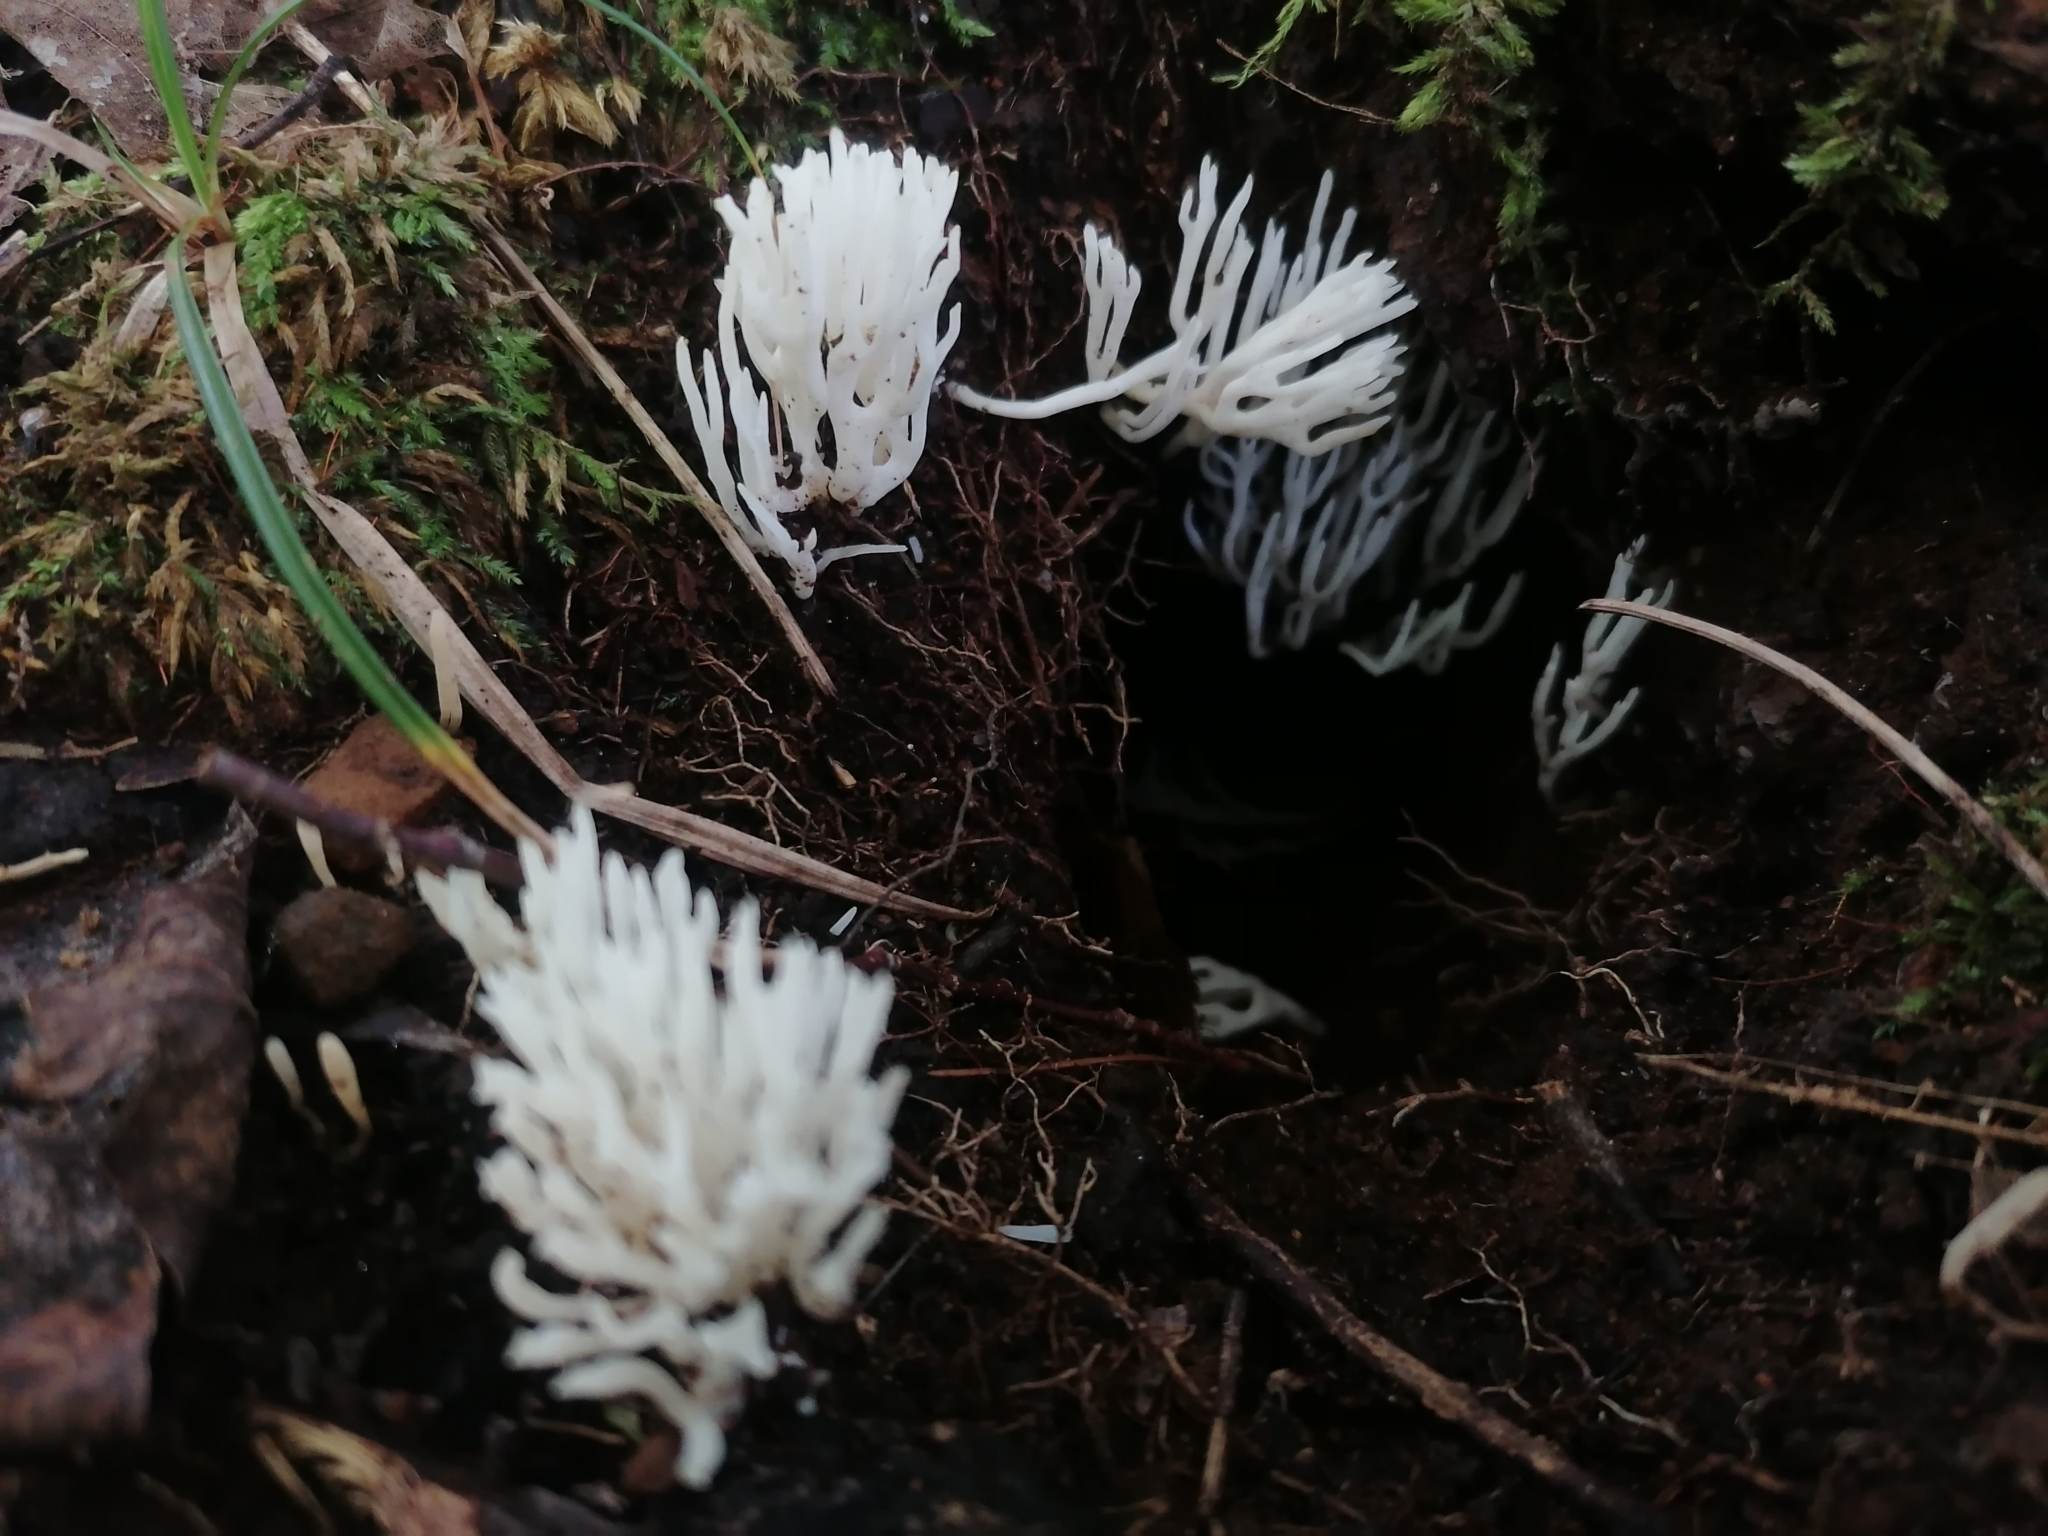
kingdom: Fungi
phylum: Basidiomycota
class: Agaricomycetes
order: Agaricales
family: Clavariaceae
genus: Ramariopsis
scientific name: Ramariopsis kunzei
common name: Ivory coral
